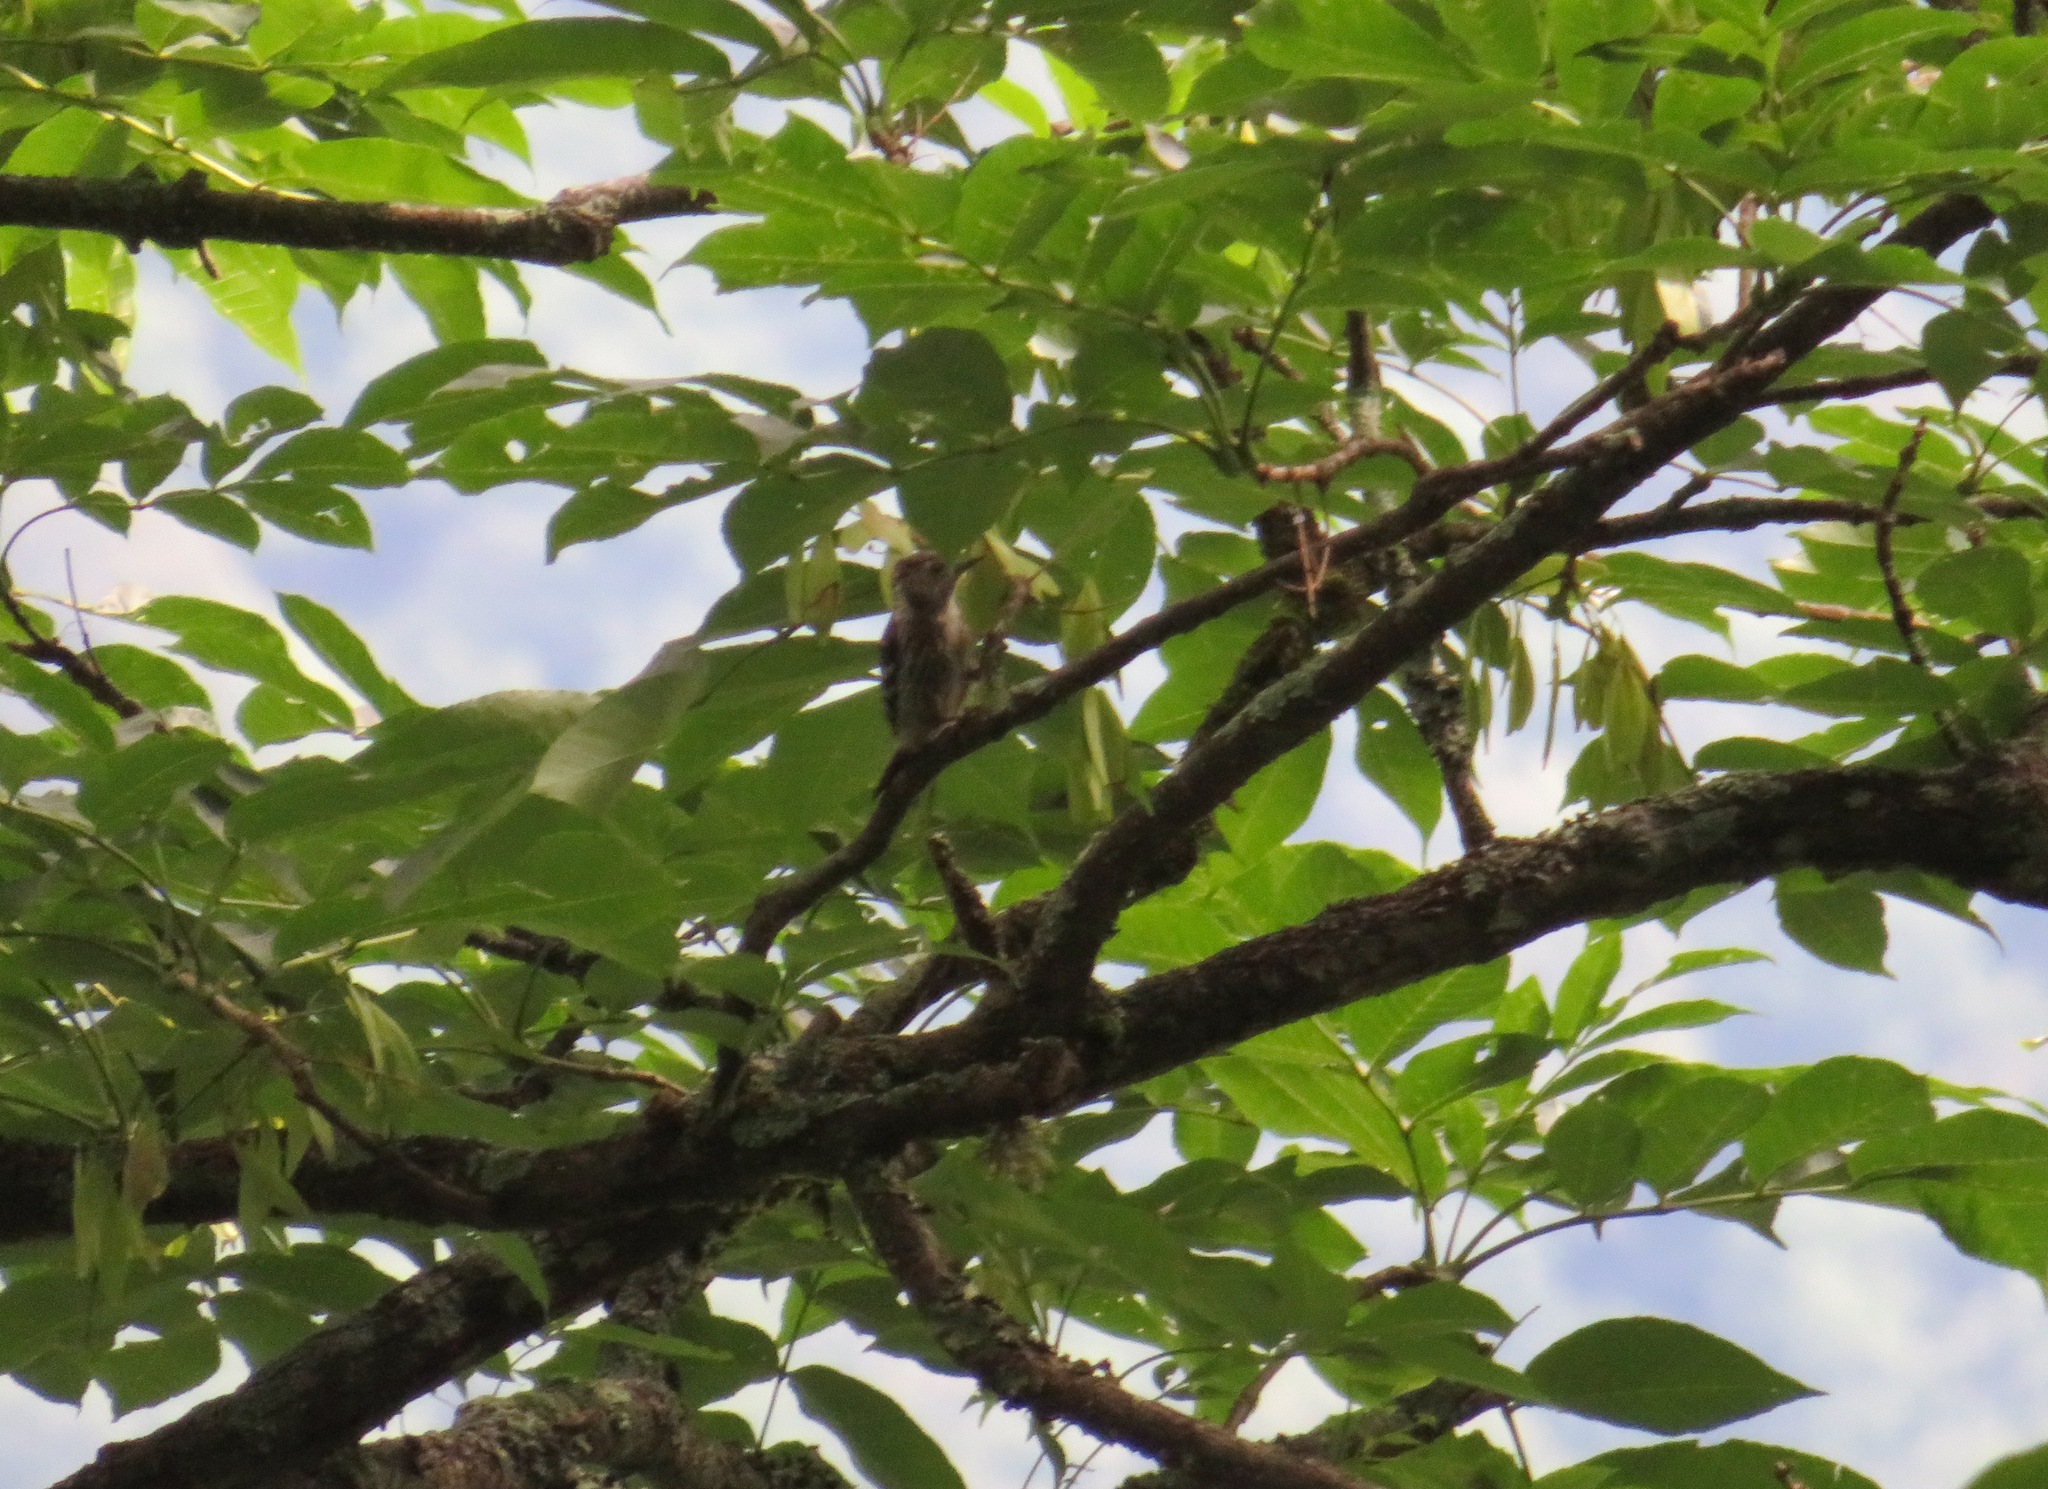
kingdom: Animalia
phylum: Chordata
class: Aves
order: Piciformes
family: Picidae
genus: Yungipicus
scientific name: Yungipicus kizuki
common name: Japanese pygmy woodpecker
